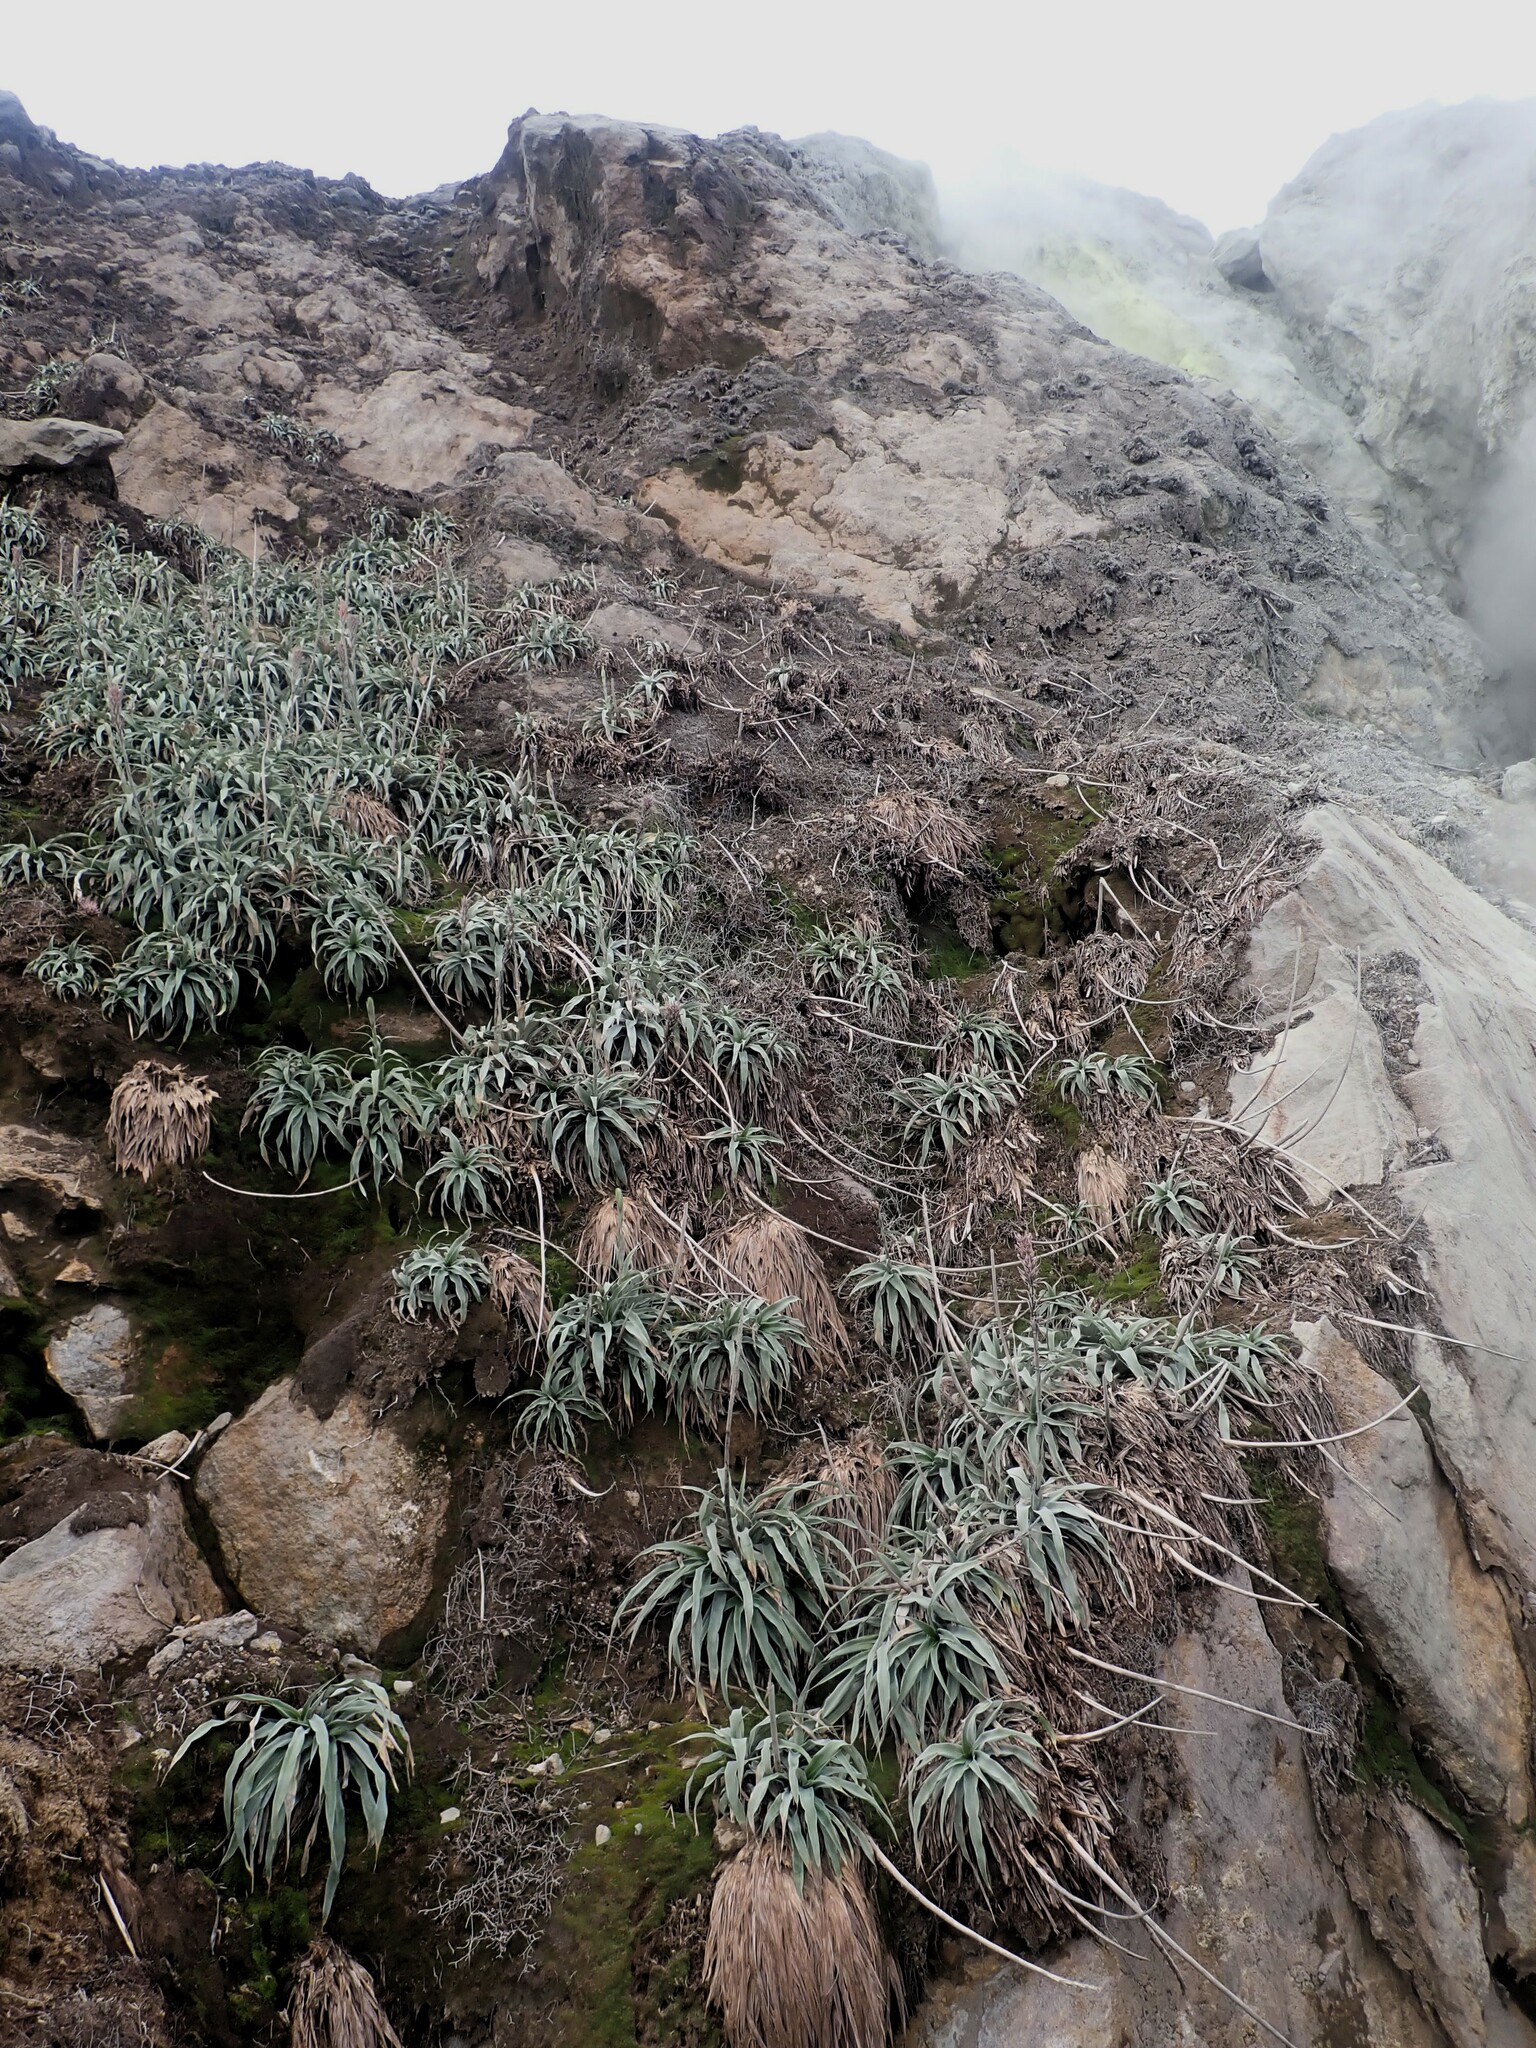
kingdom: Plantae
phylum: Tracheophyta
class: Liliopsida
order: Poales
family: Bromeliaceae
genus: Pitcairnia
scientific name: Pitcairnia bifrons
